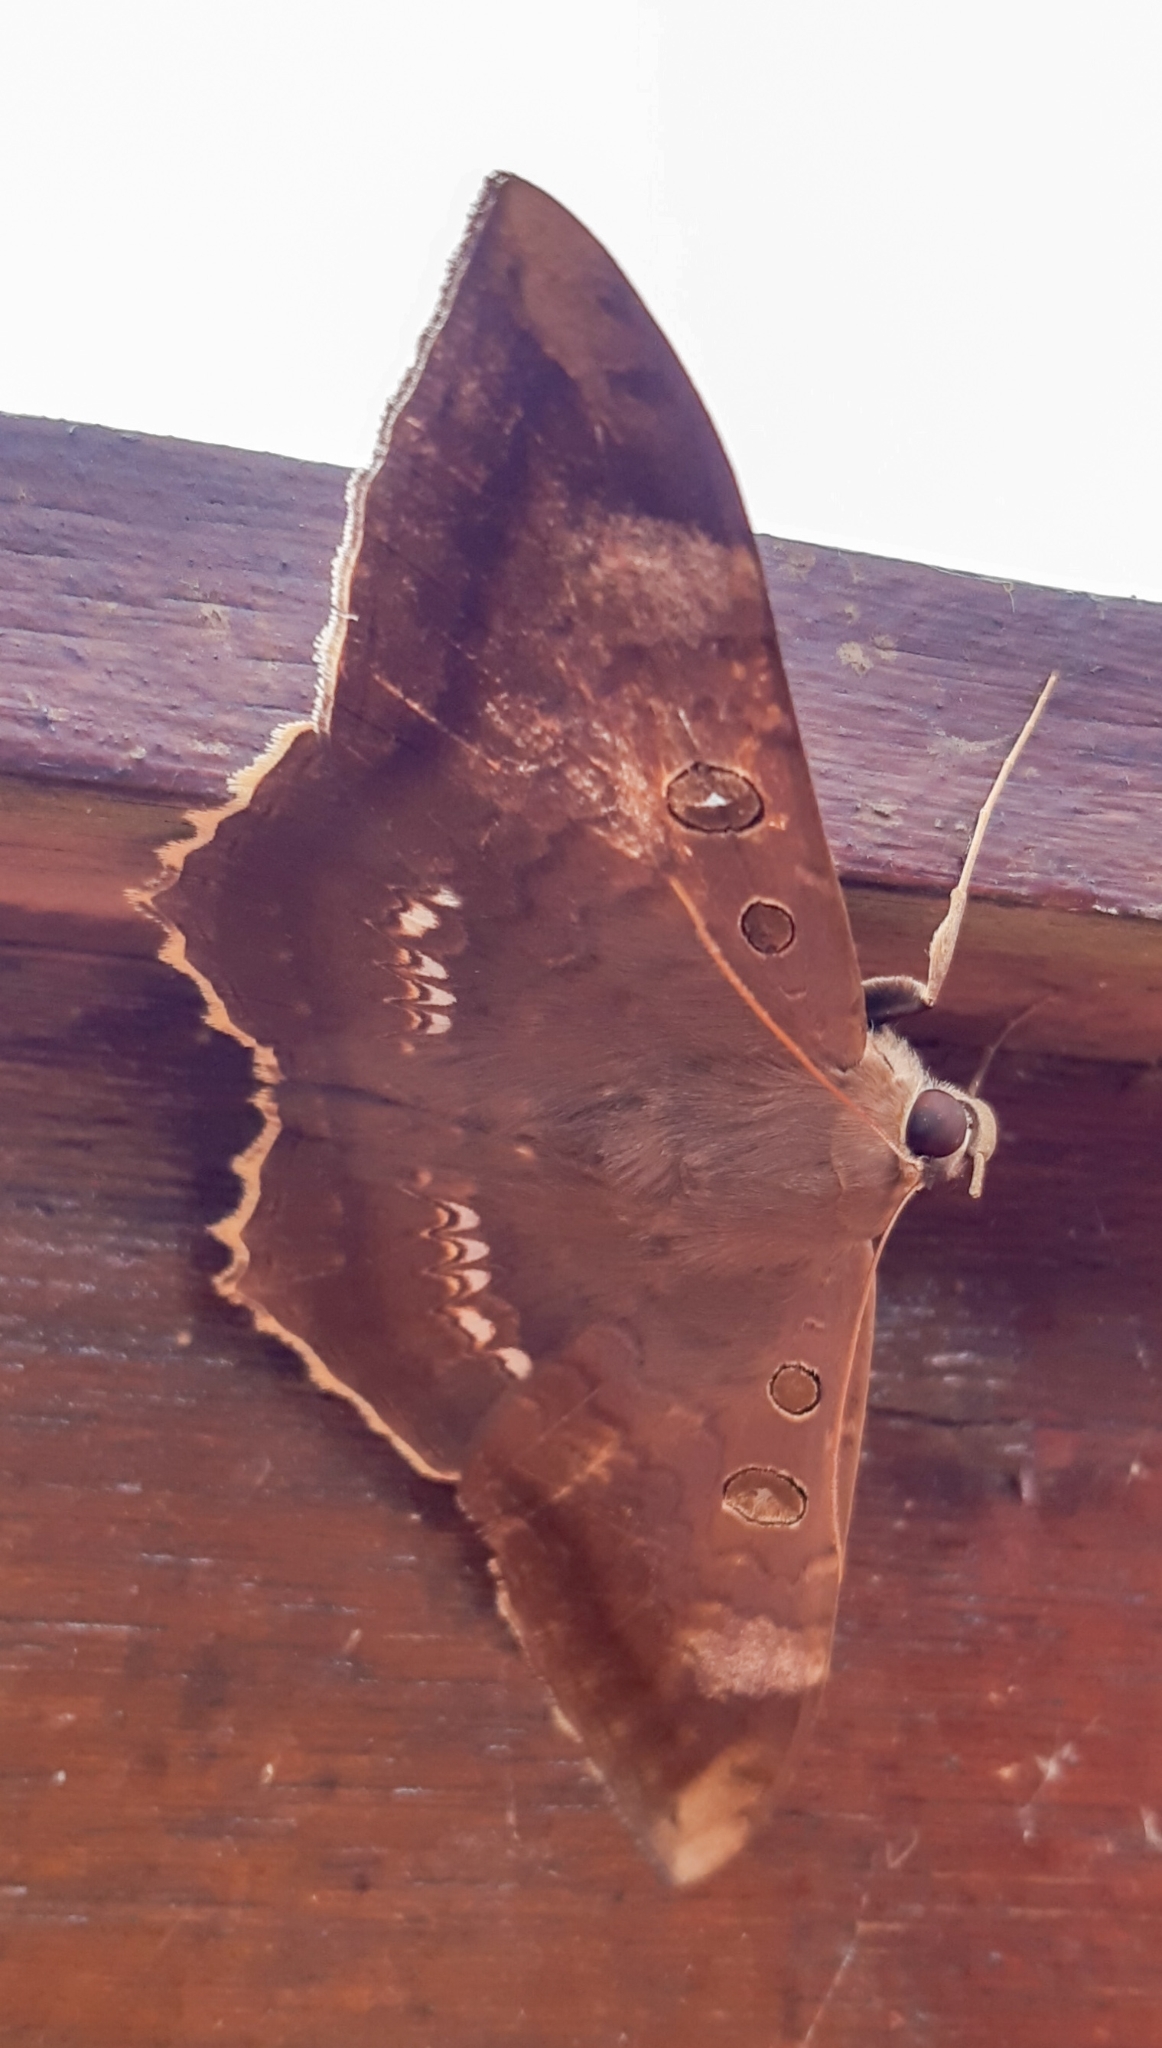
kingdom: Animalia
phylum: Arthropoda
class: Insecta
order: Lepidoptera
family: Erebidae
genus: Cyclopis
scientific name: Cyclopis caecutiens
